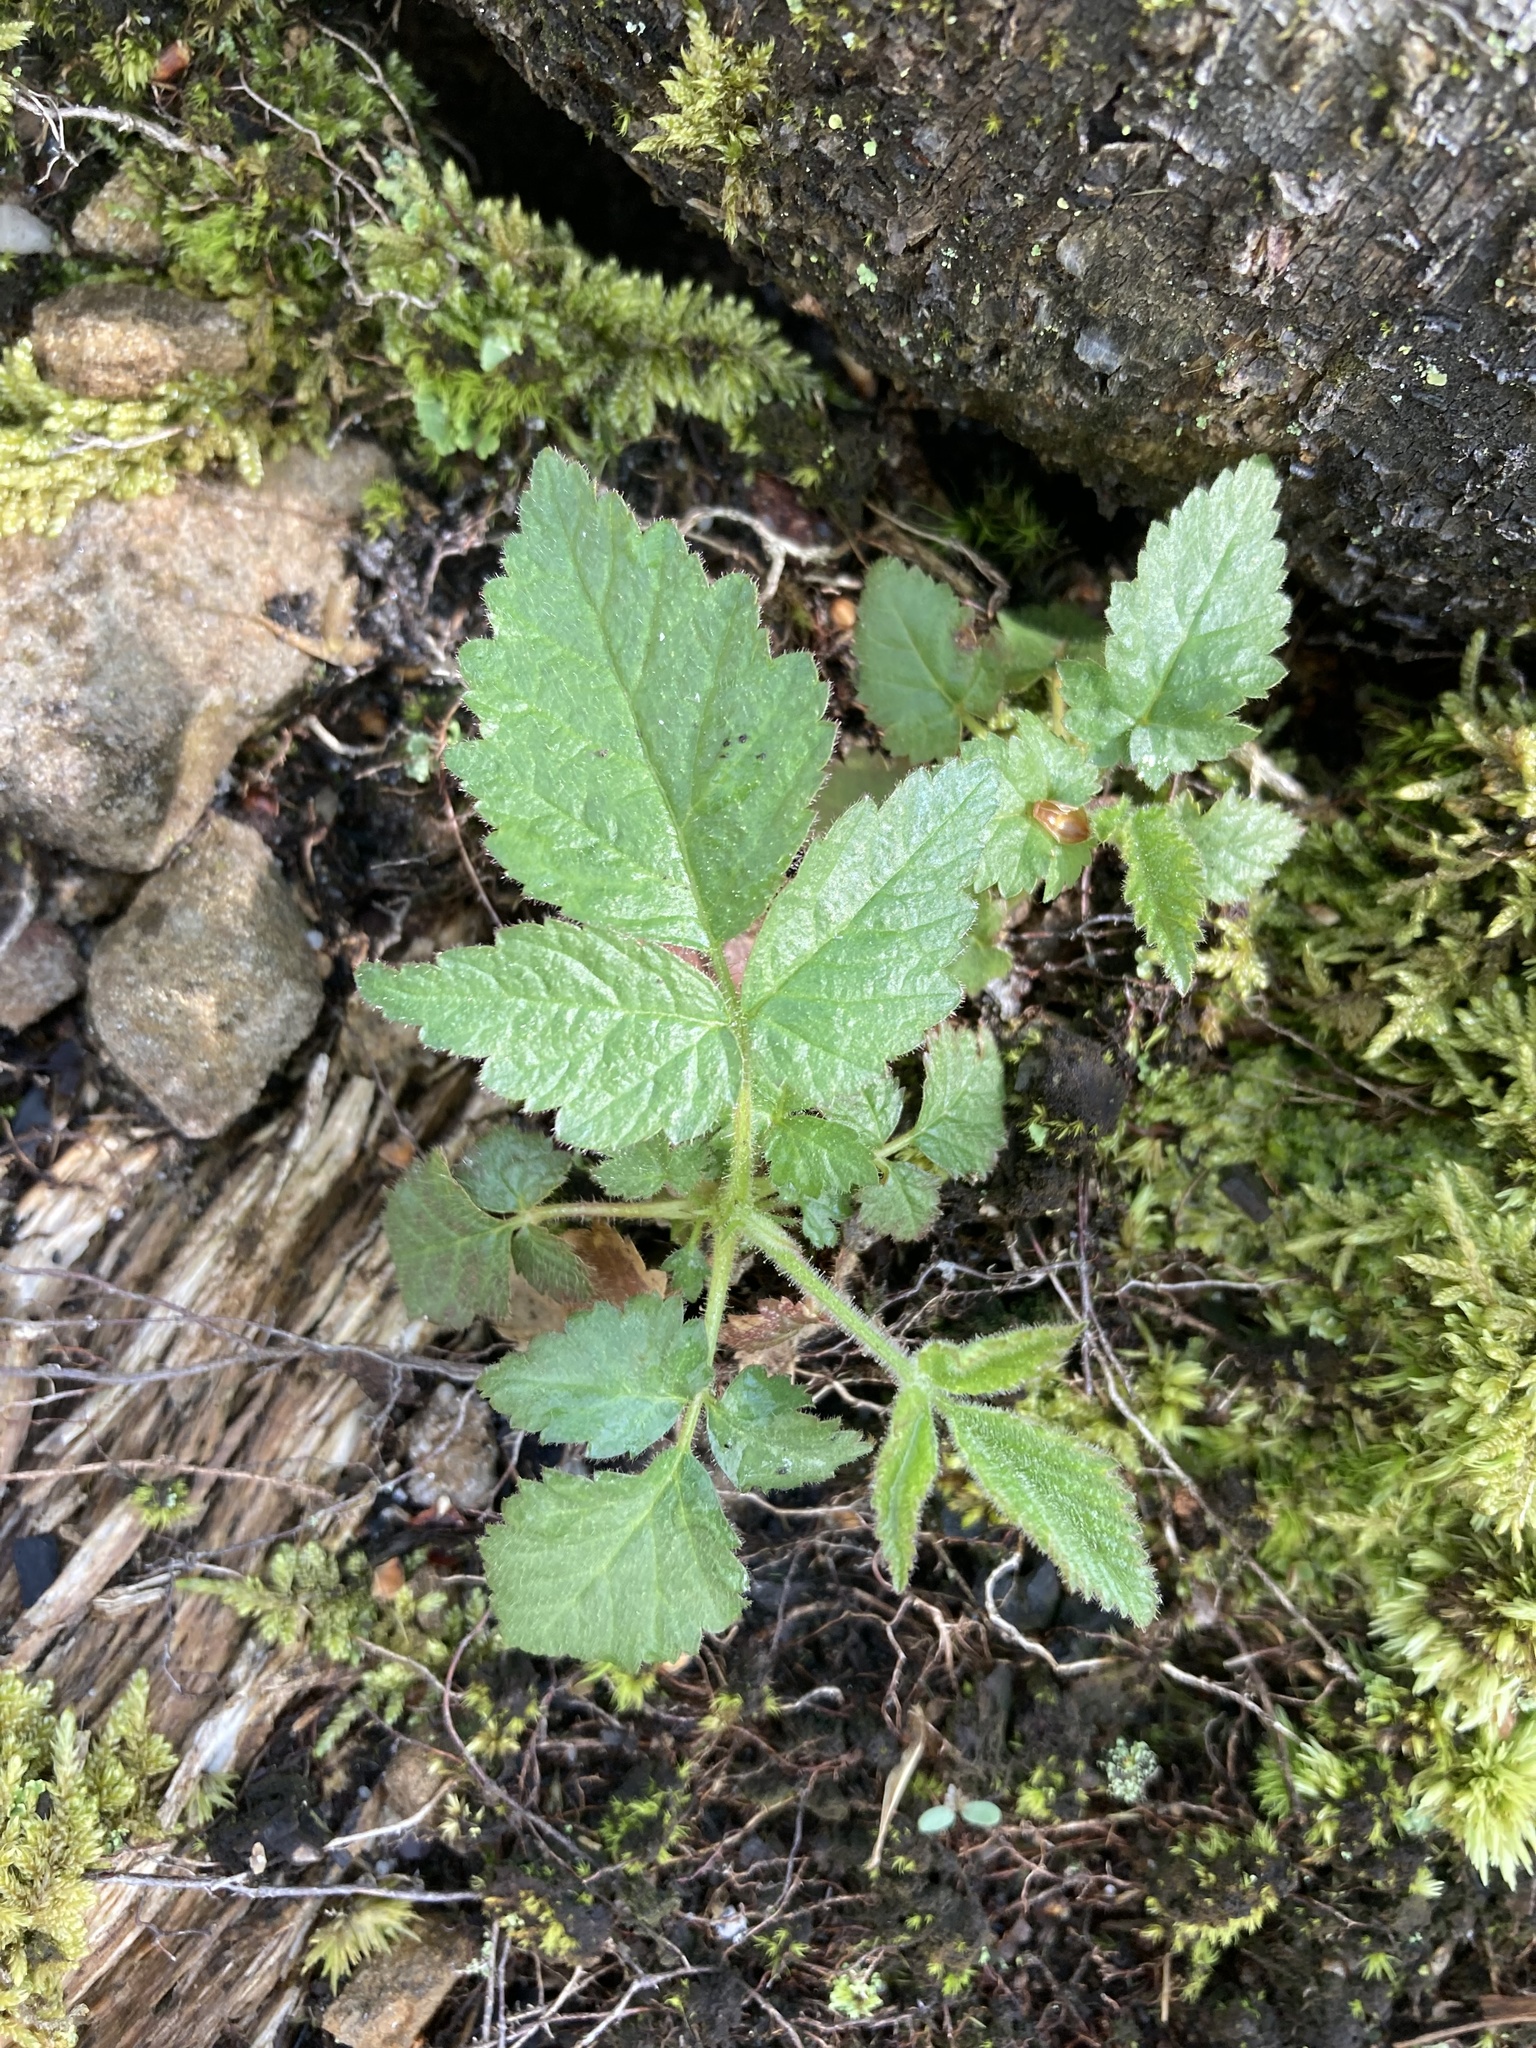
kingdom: Plantae
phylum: Tracheophyta
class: Magnoliopsida
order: Rosales
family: Rosaceae
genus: Rubus
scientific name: Rubus idaeus
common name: Raspberry
